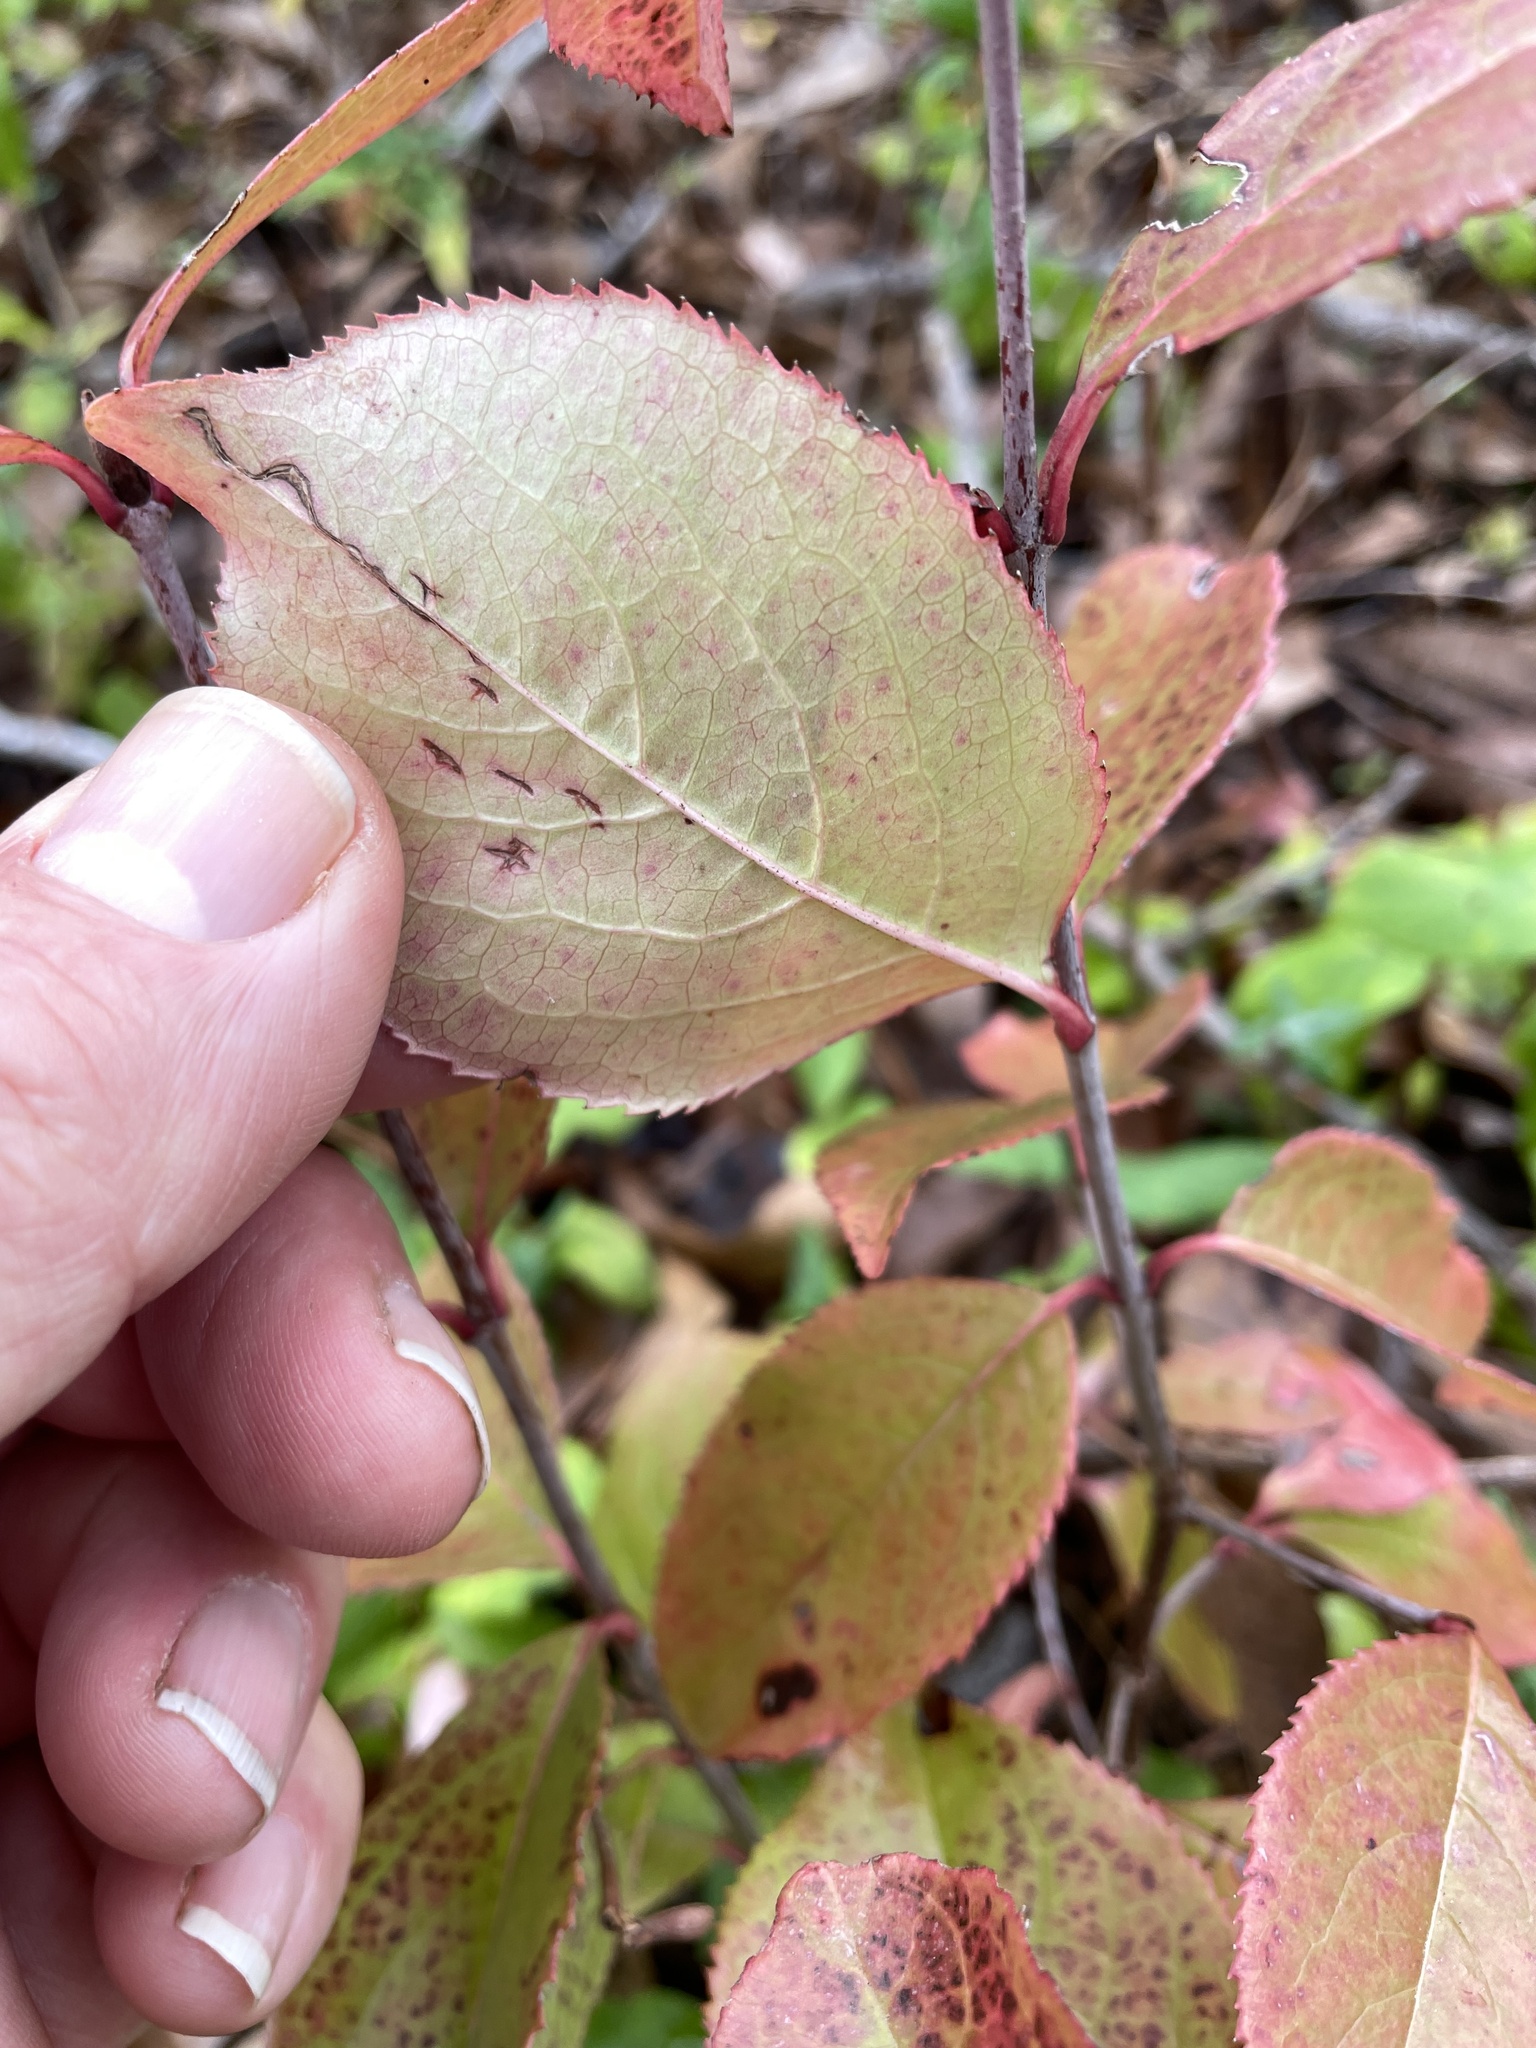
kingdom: Plantae
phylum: Tracheophyta
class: Magnoliopsida
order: Dipsacales
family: Viburnaceae
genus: Viburnum
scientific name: Viburnum rufidulum
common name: Blue haw
